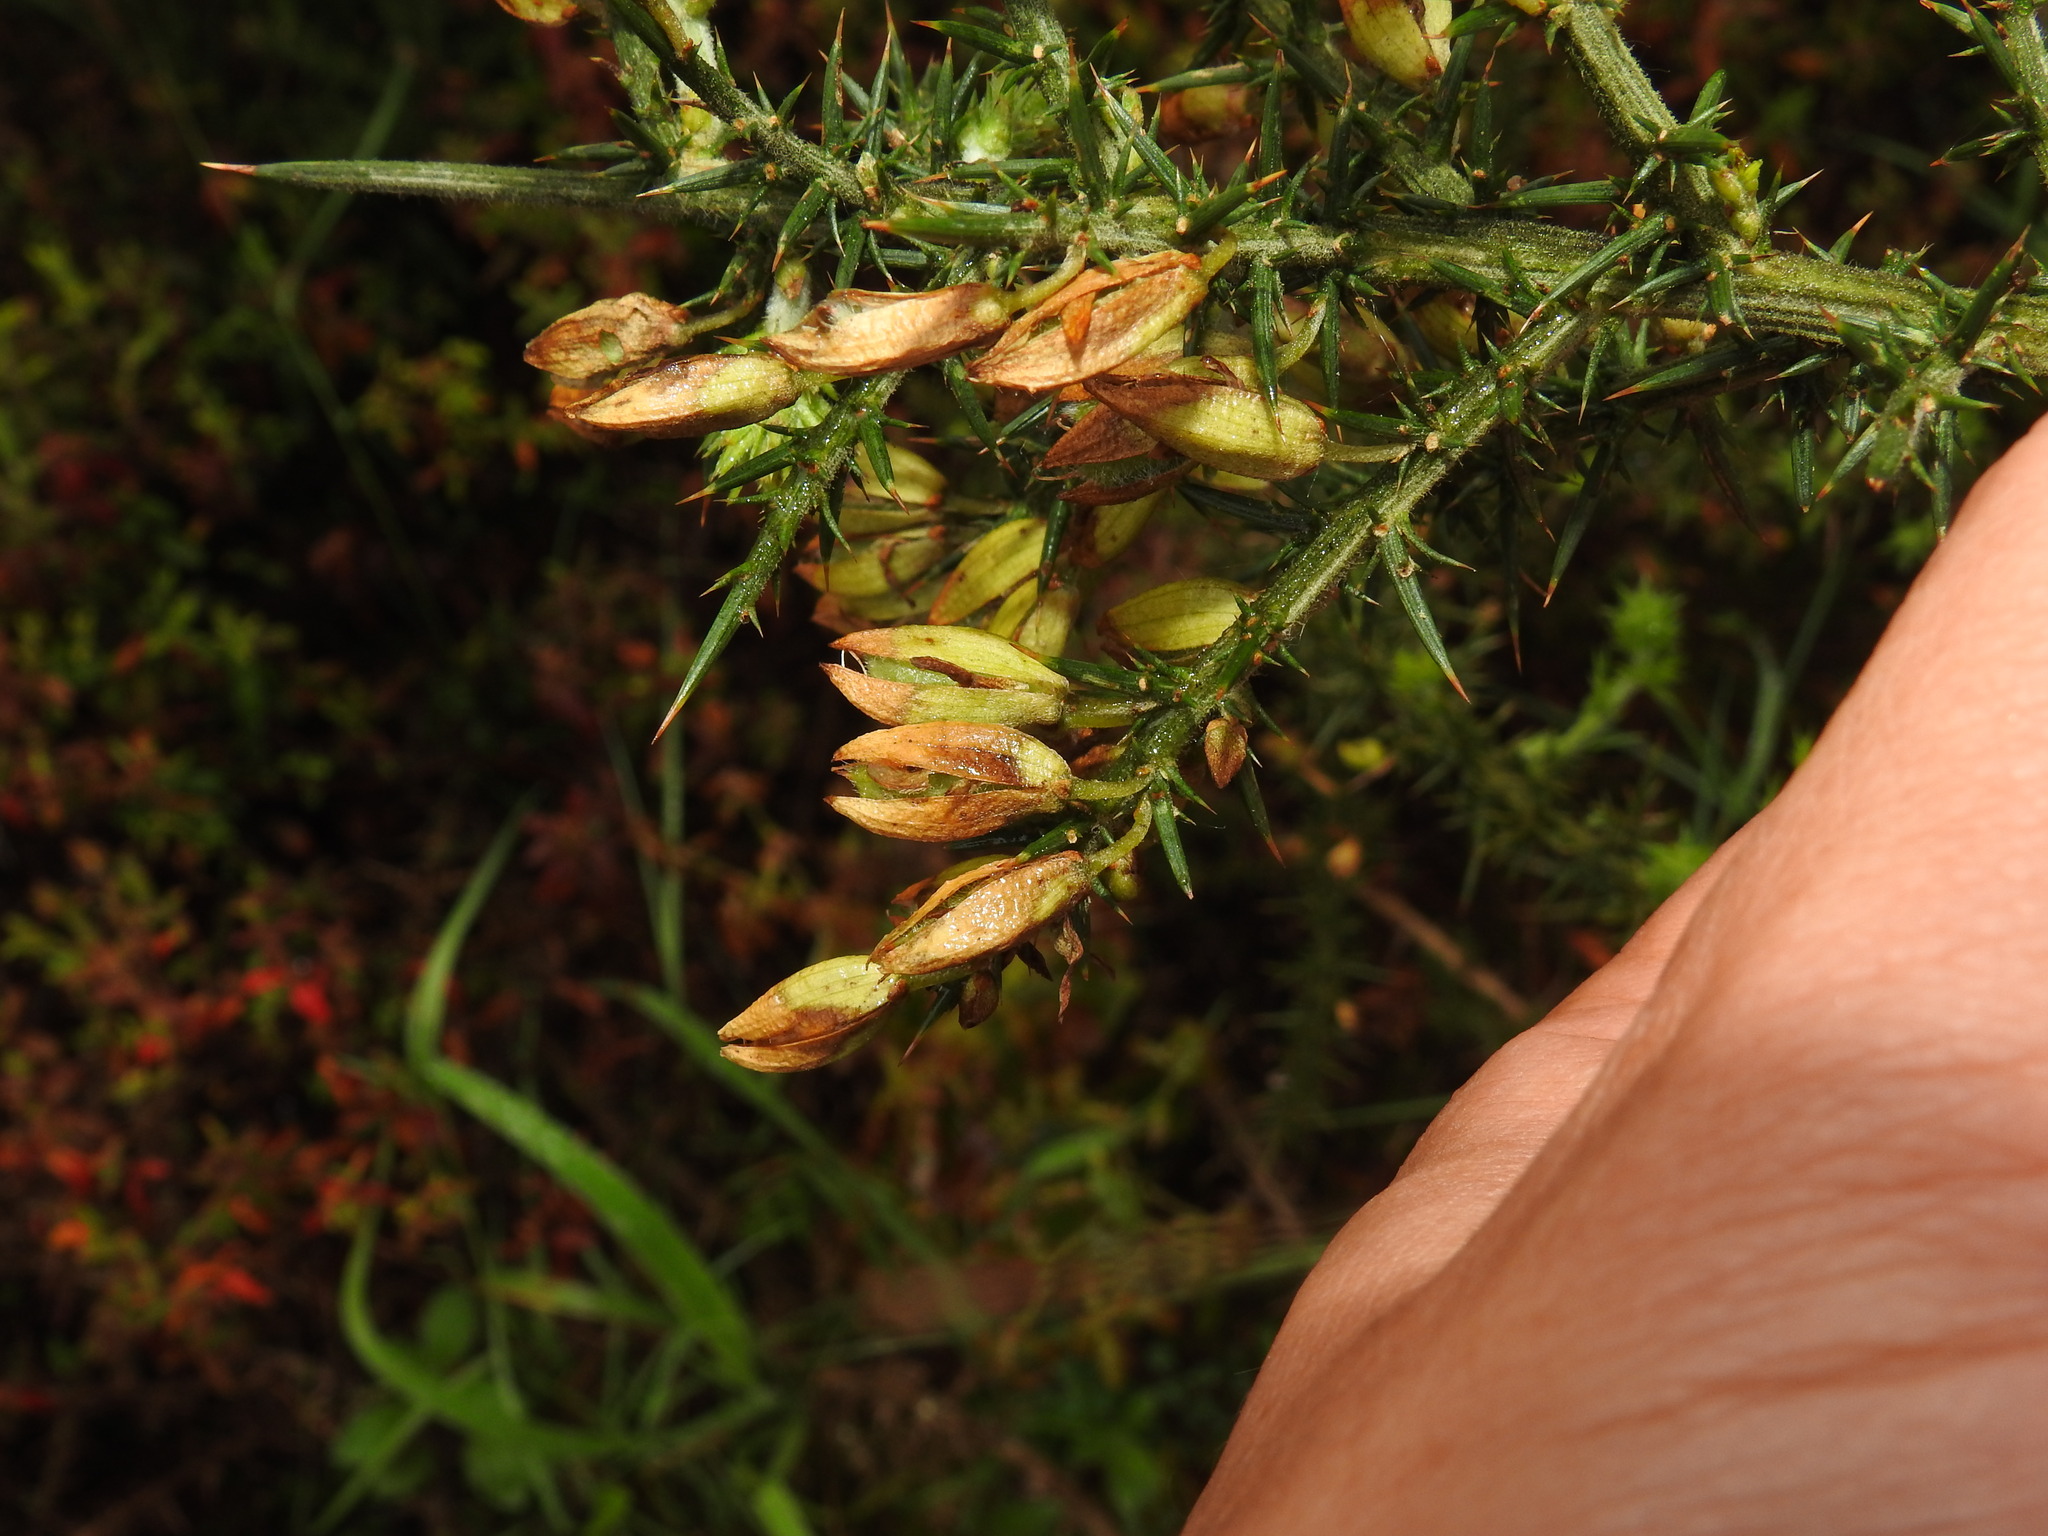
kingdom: Plantae
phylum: Tracheophyta
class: Magnoliopsida
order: Fabales
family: Fabaceae
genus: Ulex
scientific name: Ulex jussiaei
